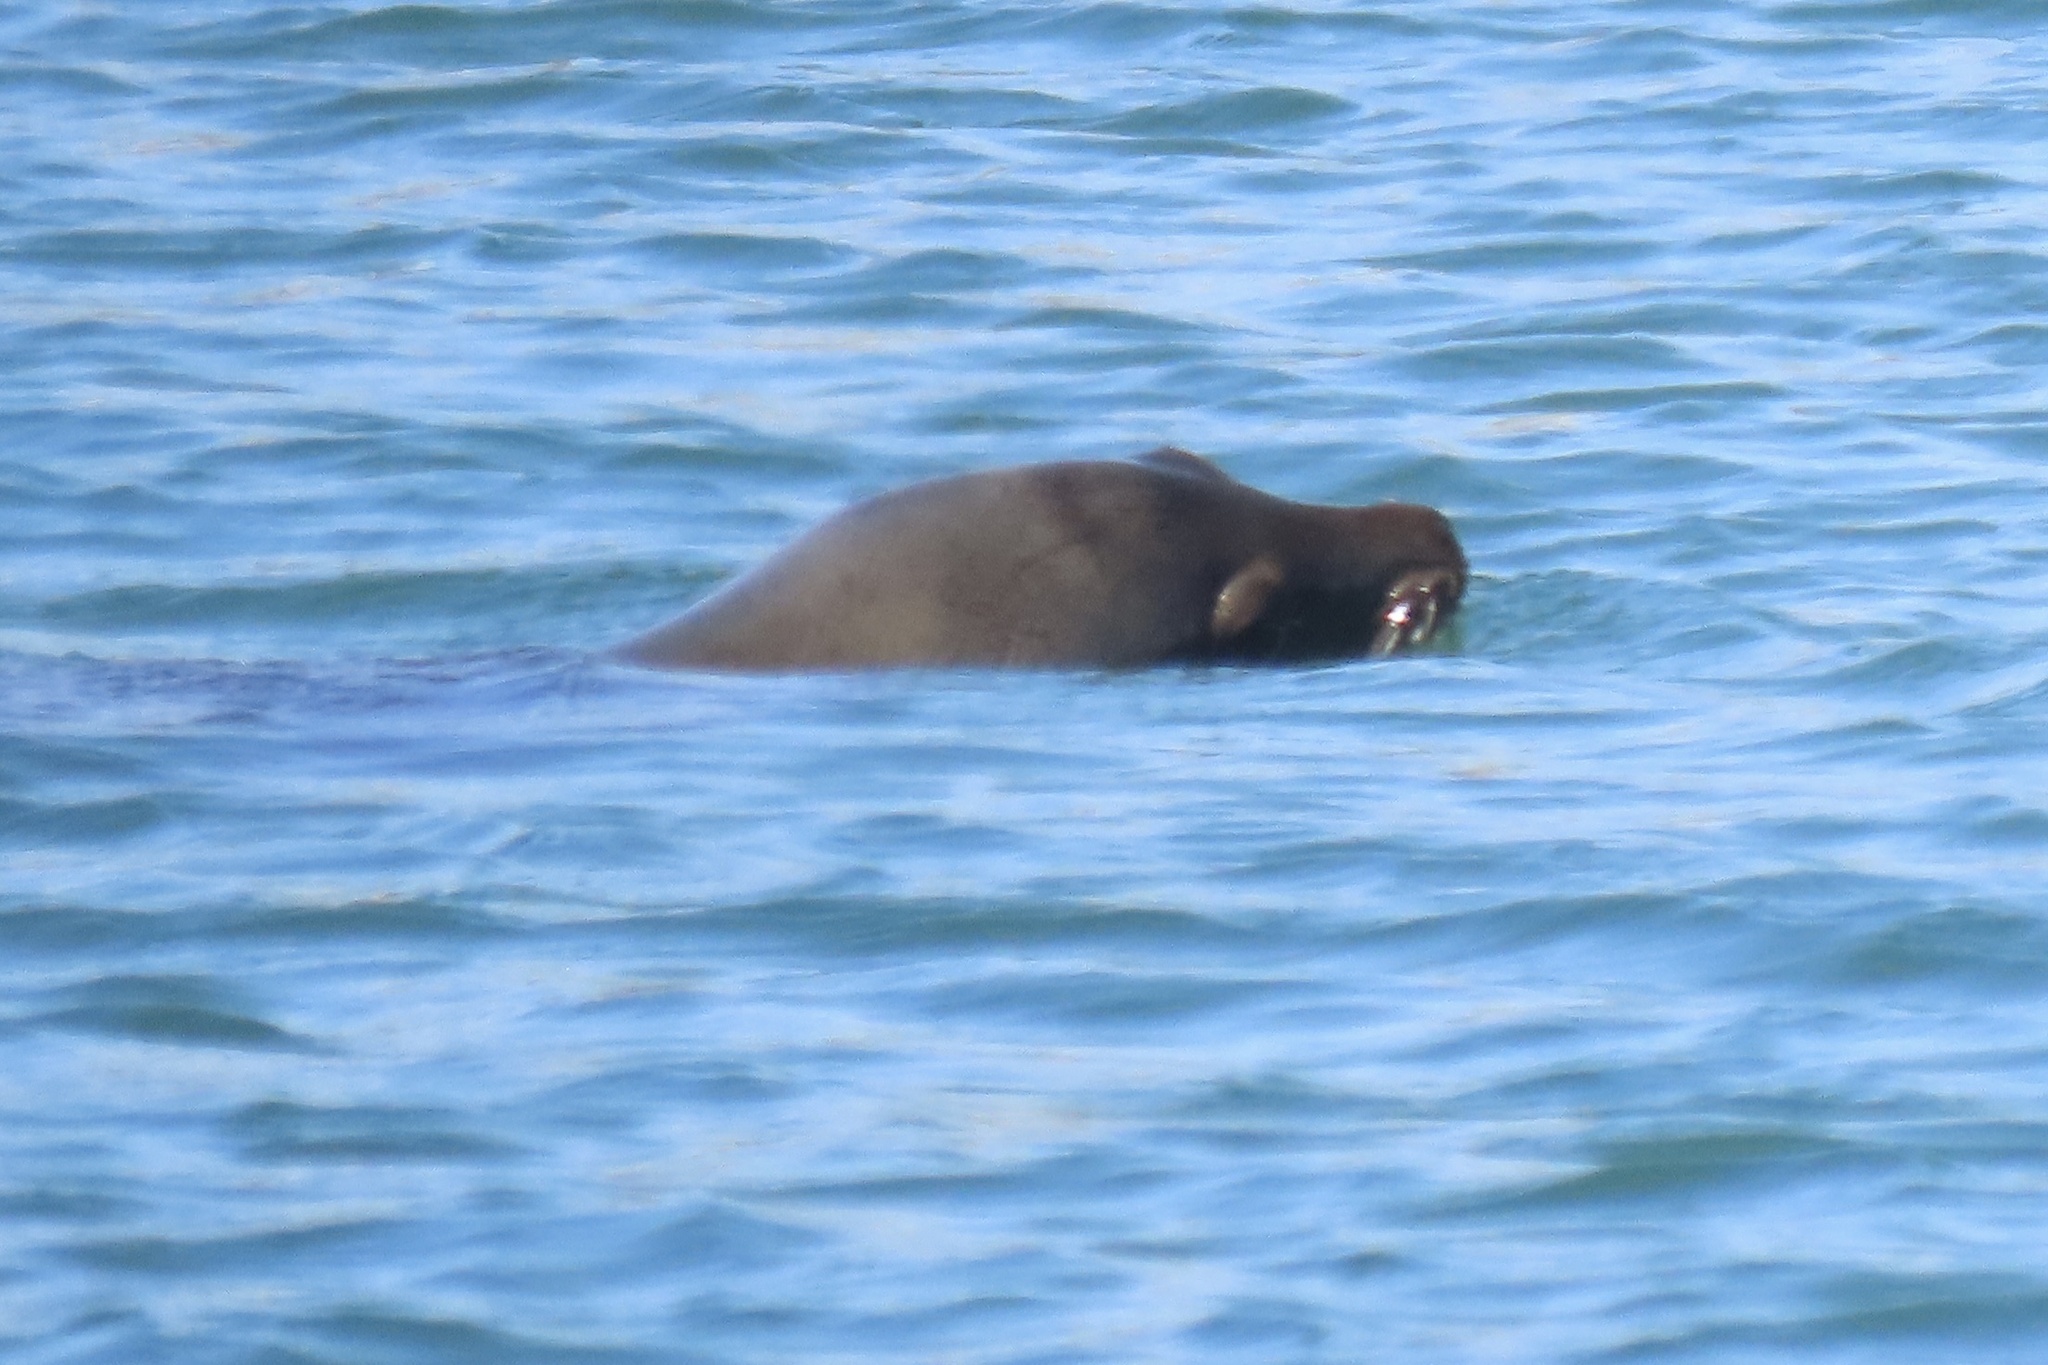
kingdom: Animalia
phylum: Chordata
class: Mammalia
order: Carnivora
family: Otariidae
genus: Zalophus
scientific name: Zalophus californianus
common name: California sea lion
